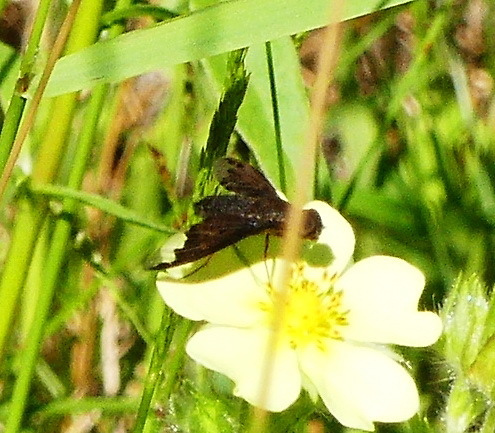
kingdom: Animalia
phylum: Arthropoda
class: Insecta
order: Diptera
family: Bombyliidae
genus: Hemipenthes
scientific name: Hemipenthes sinuosus
